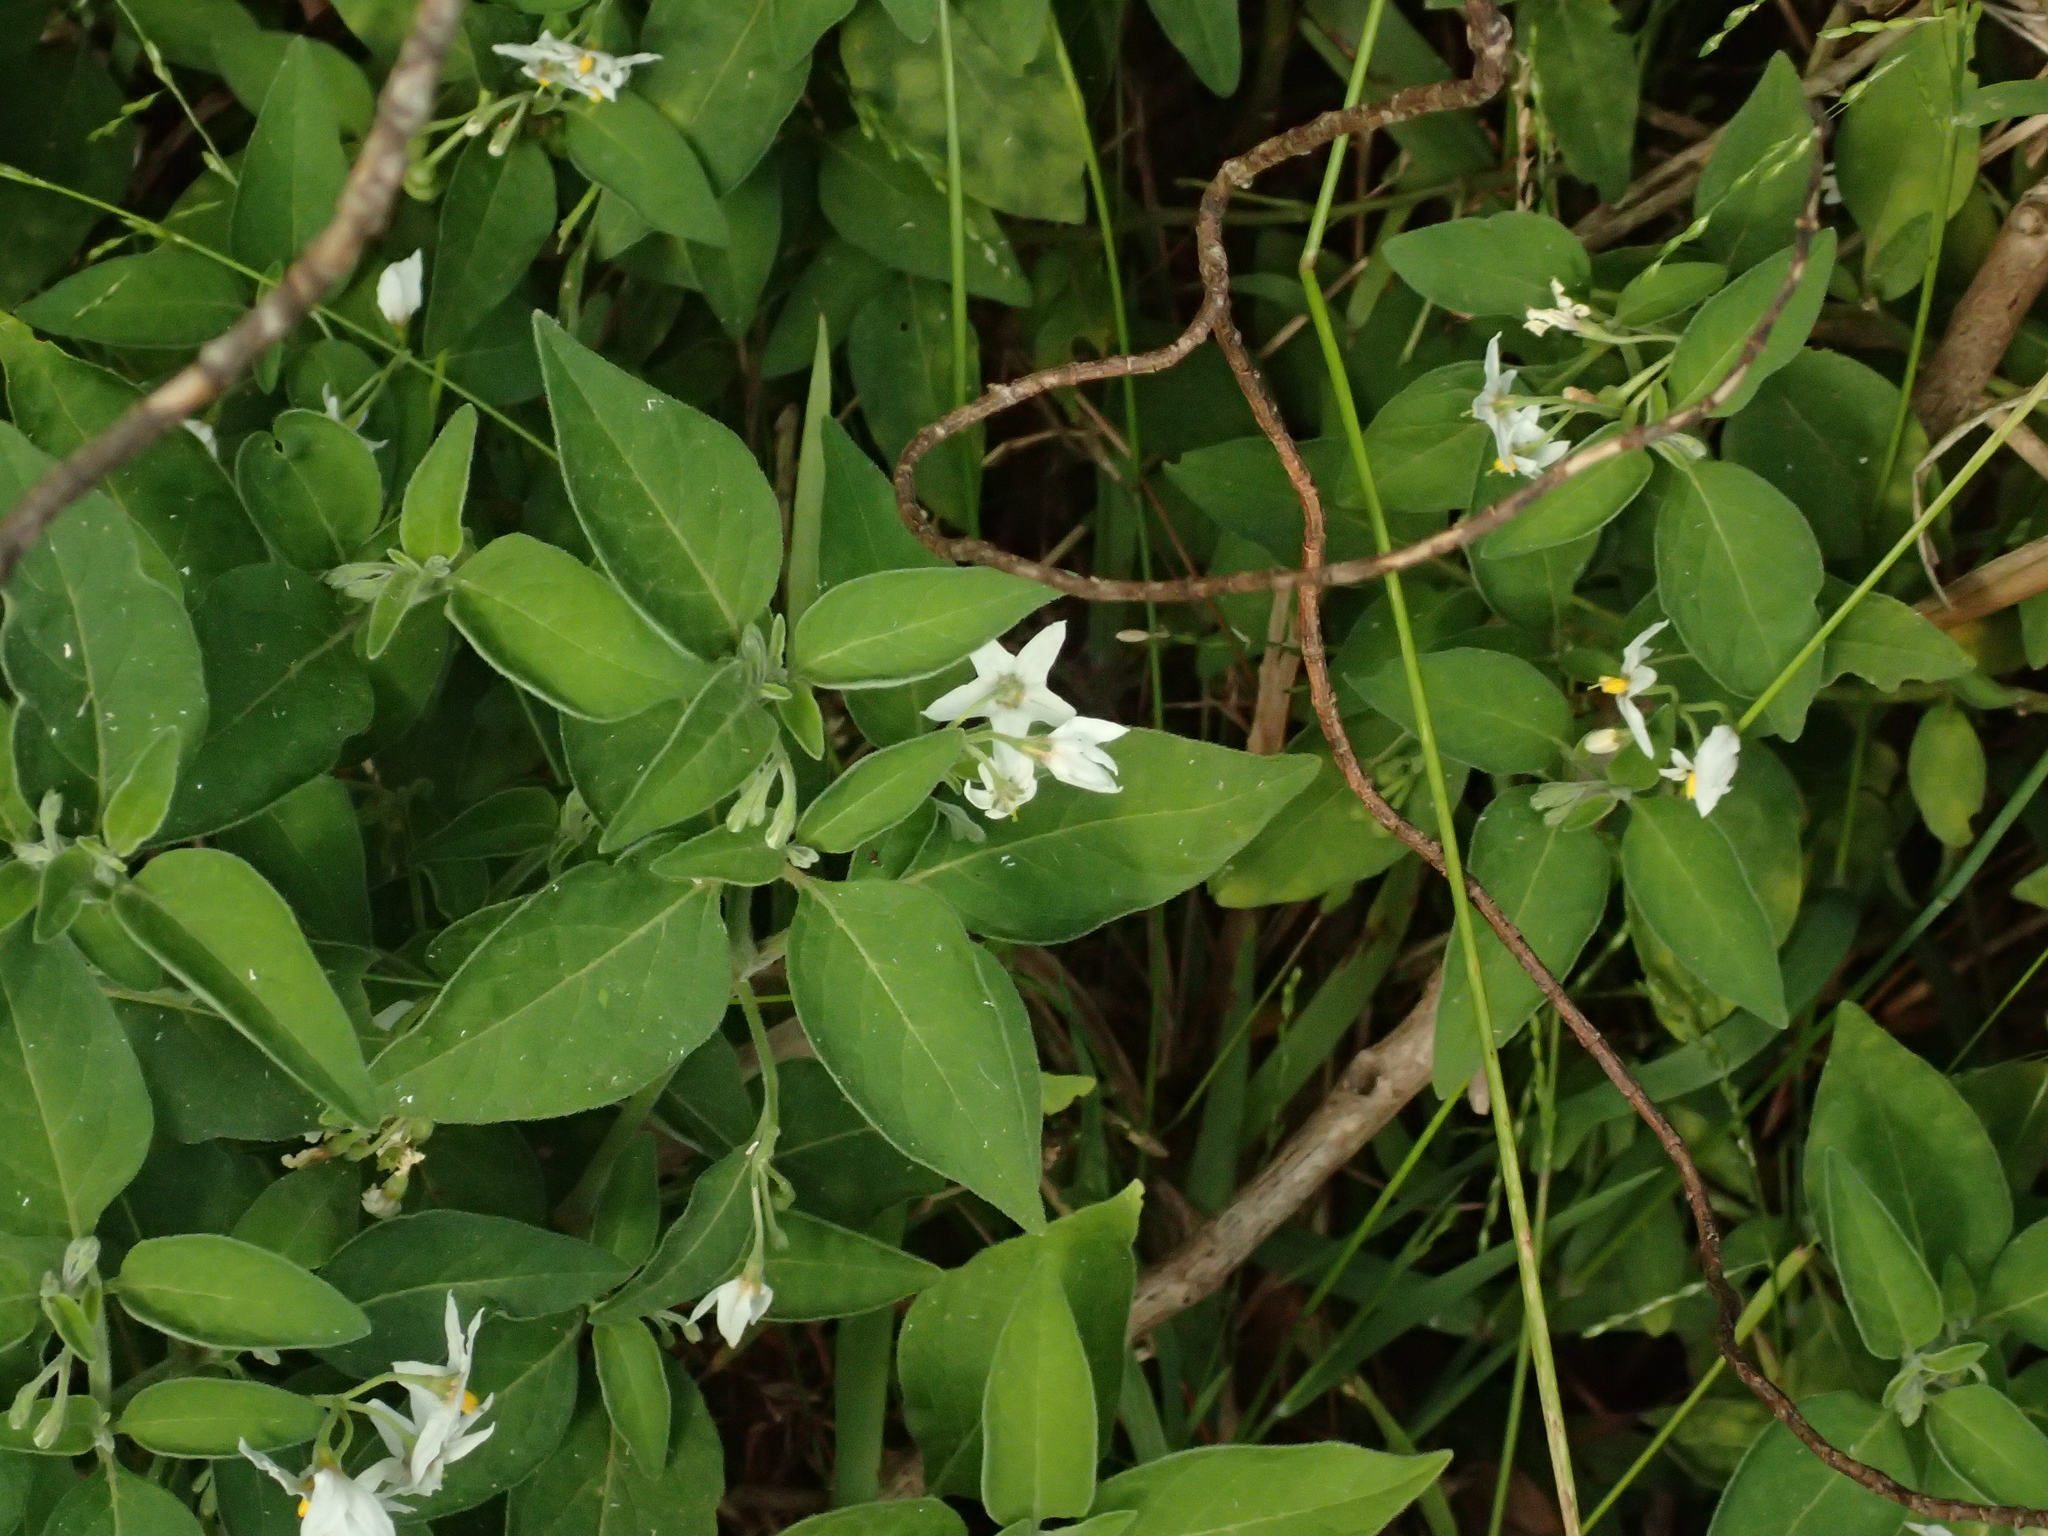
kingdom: Plantae
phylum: Tracheophyta
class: Magnoliopsida
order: Solanales
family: Solanaceae
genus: Solanum
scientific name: Solanum chenopodioides
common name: Tall nightshade
